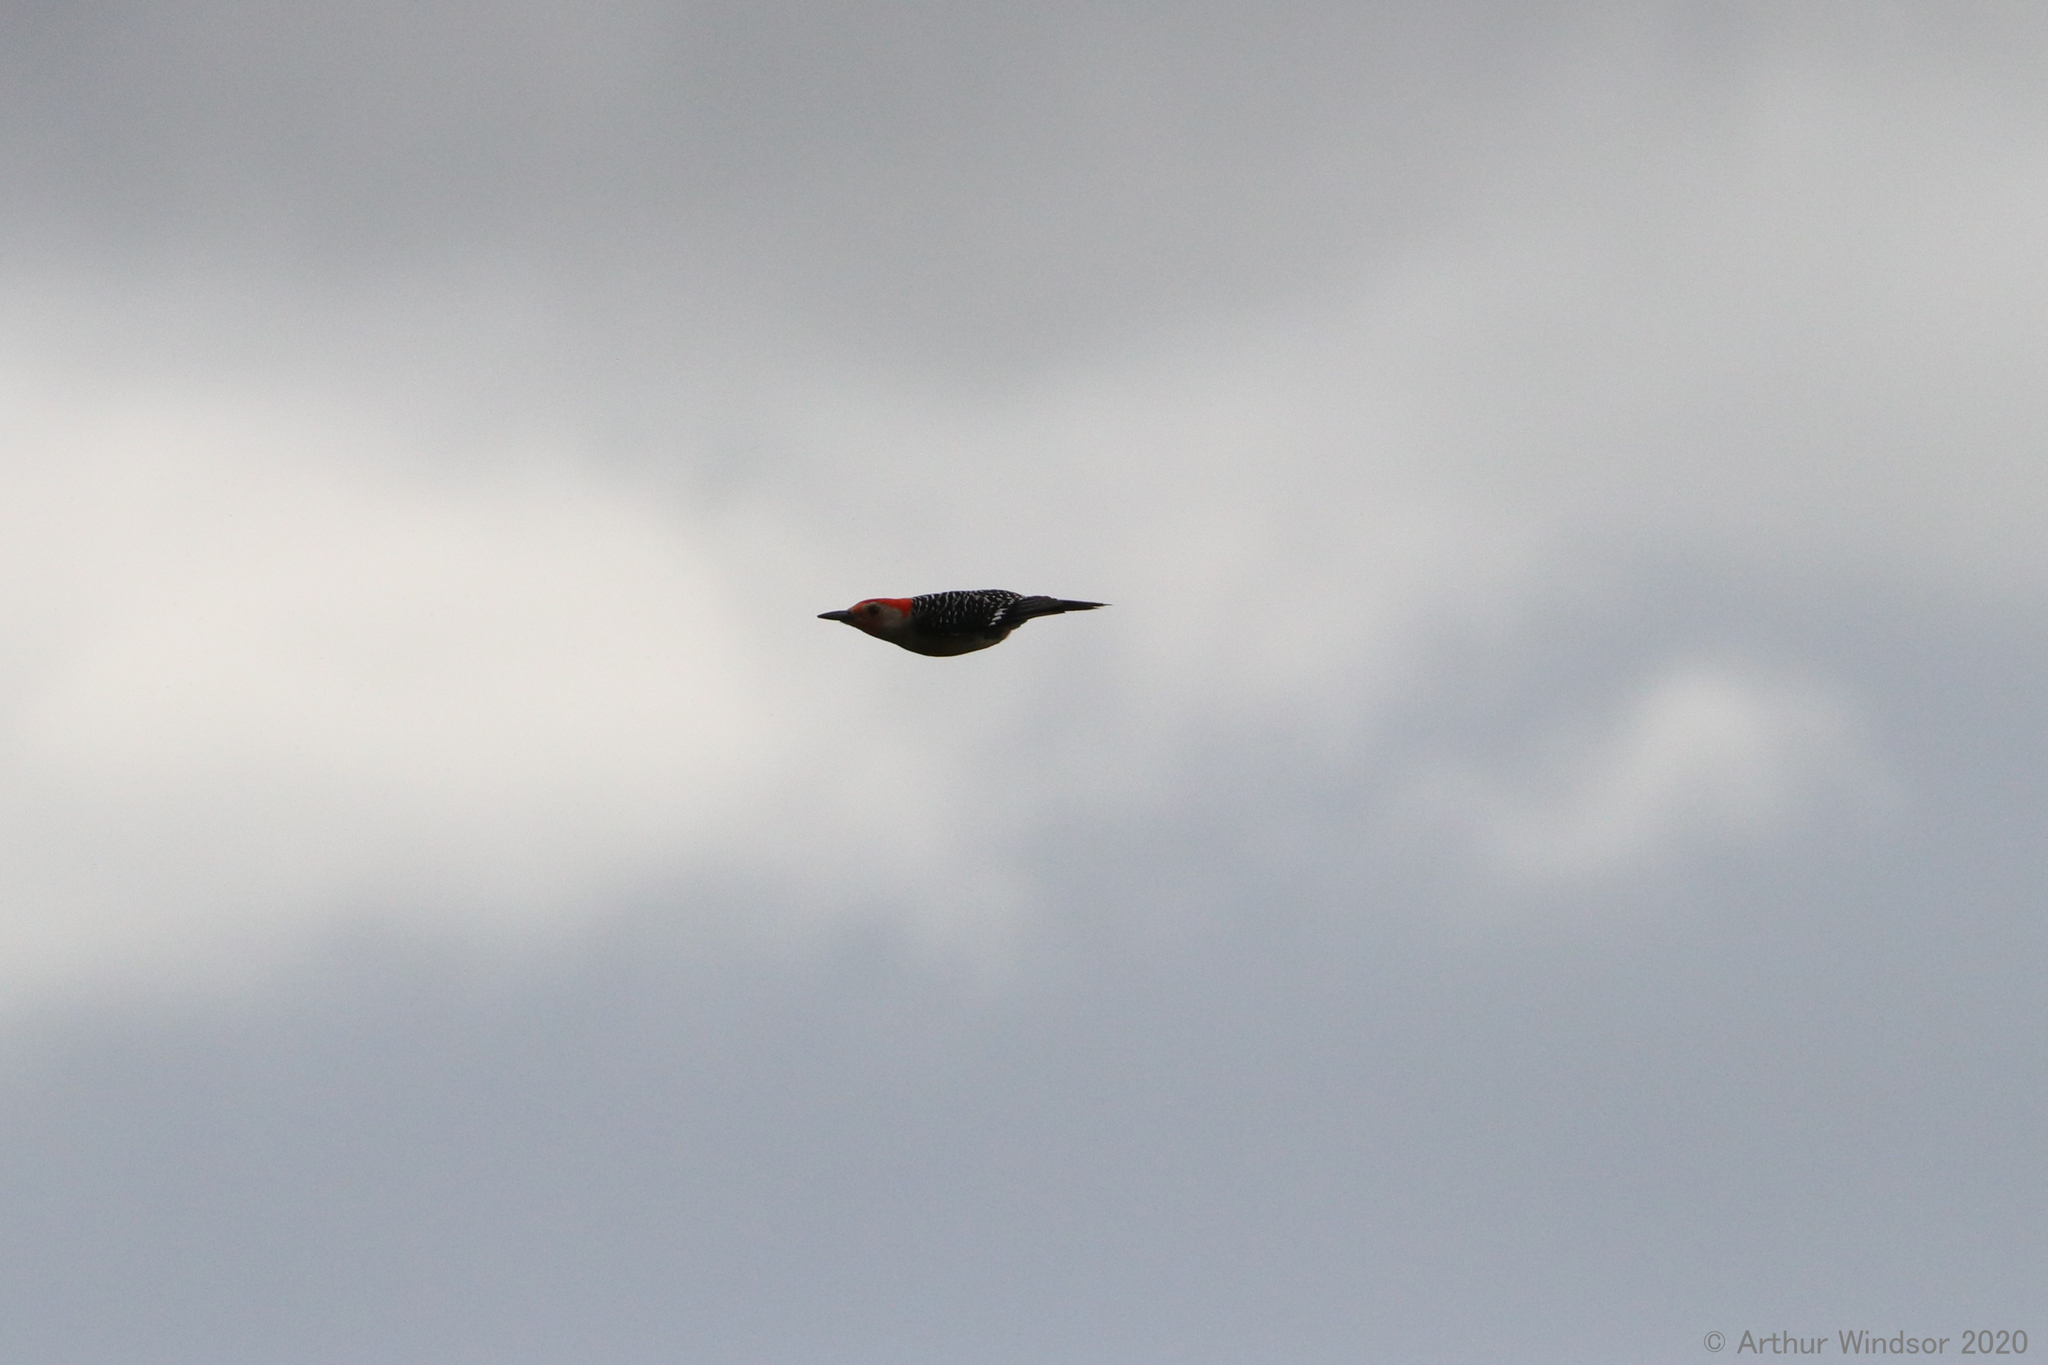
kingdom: Animalia
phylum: Chordata
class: Aves
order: Piciformes
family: Picidae
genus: Melanerpes
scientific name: Melanerpes carolinus
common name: Red-bellied woodpecker
